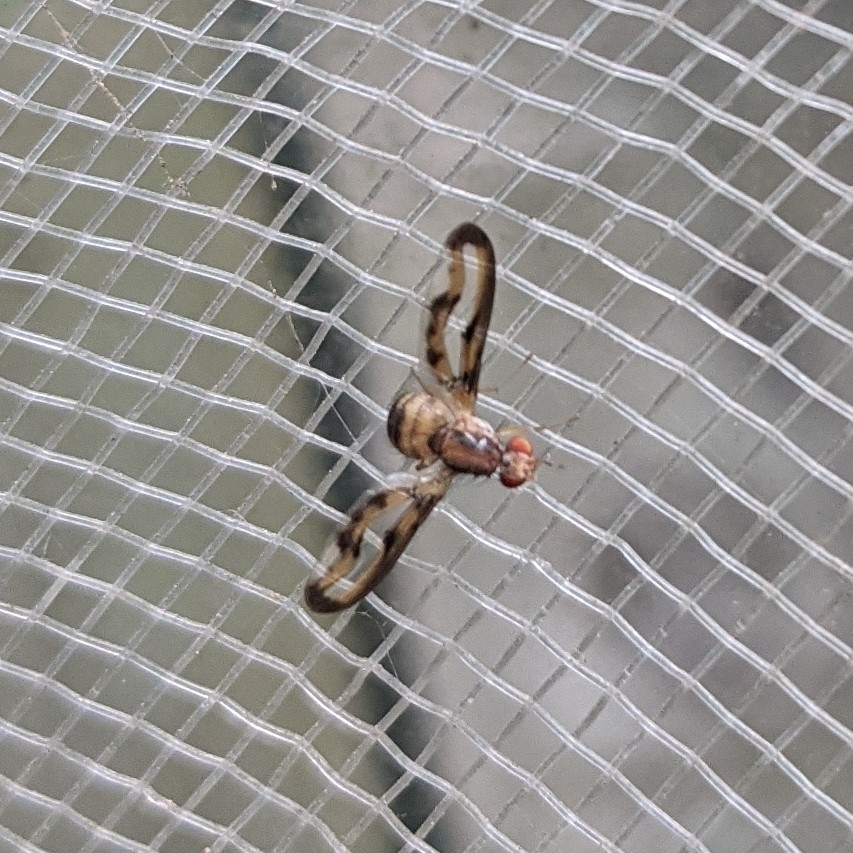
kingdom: Animalia
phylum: Arthropoda
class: Insecta
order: Diptera
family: Pallopteridae
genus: Toxonevra
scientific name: Toxonevra muliebris
